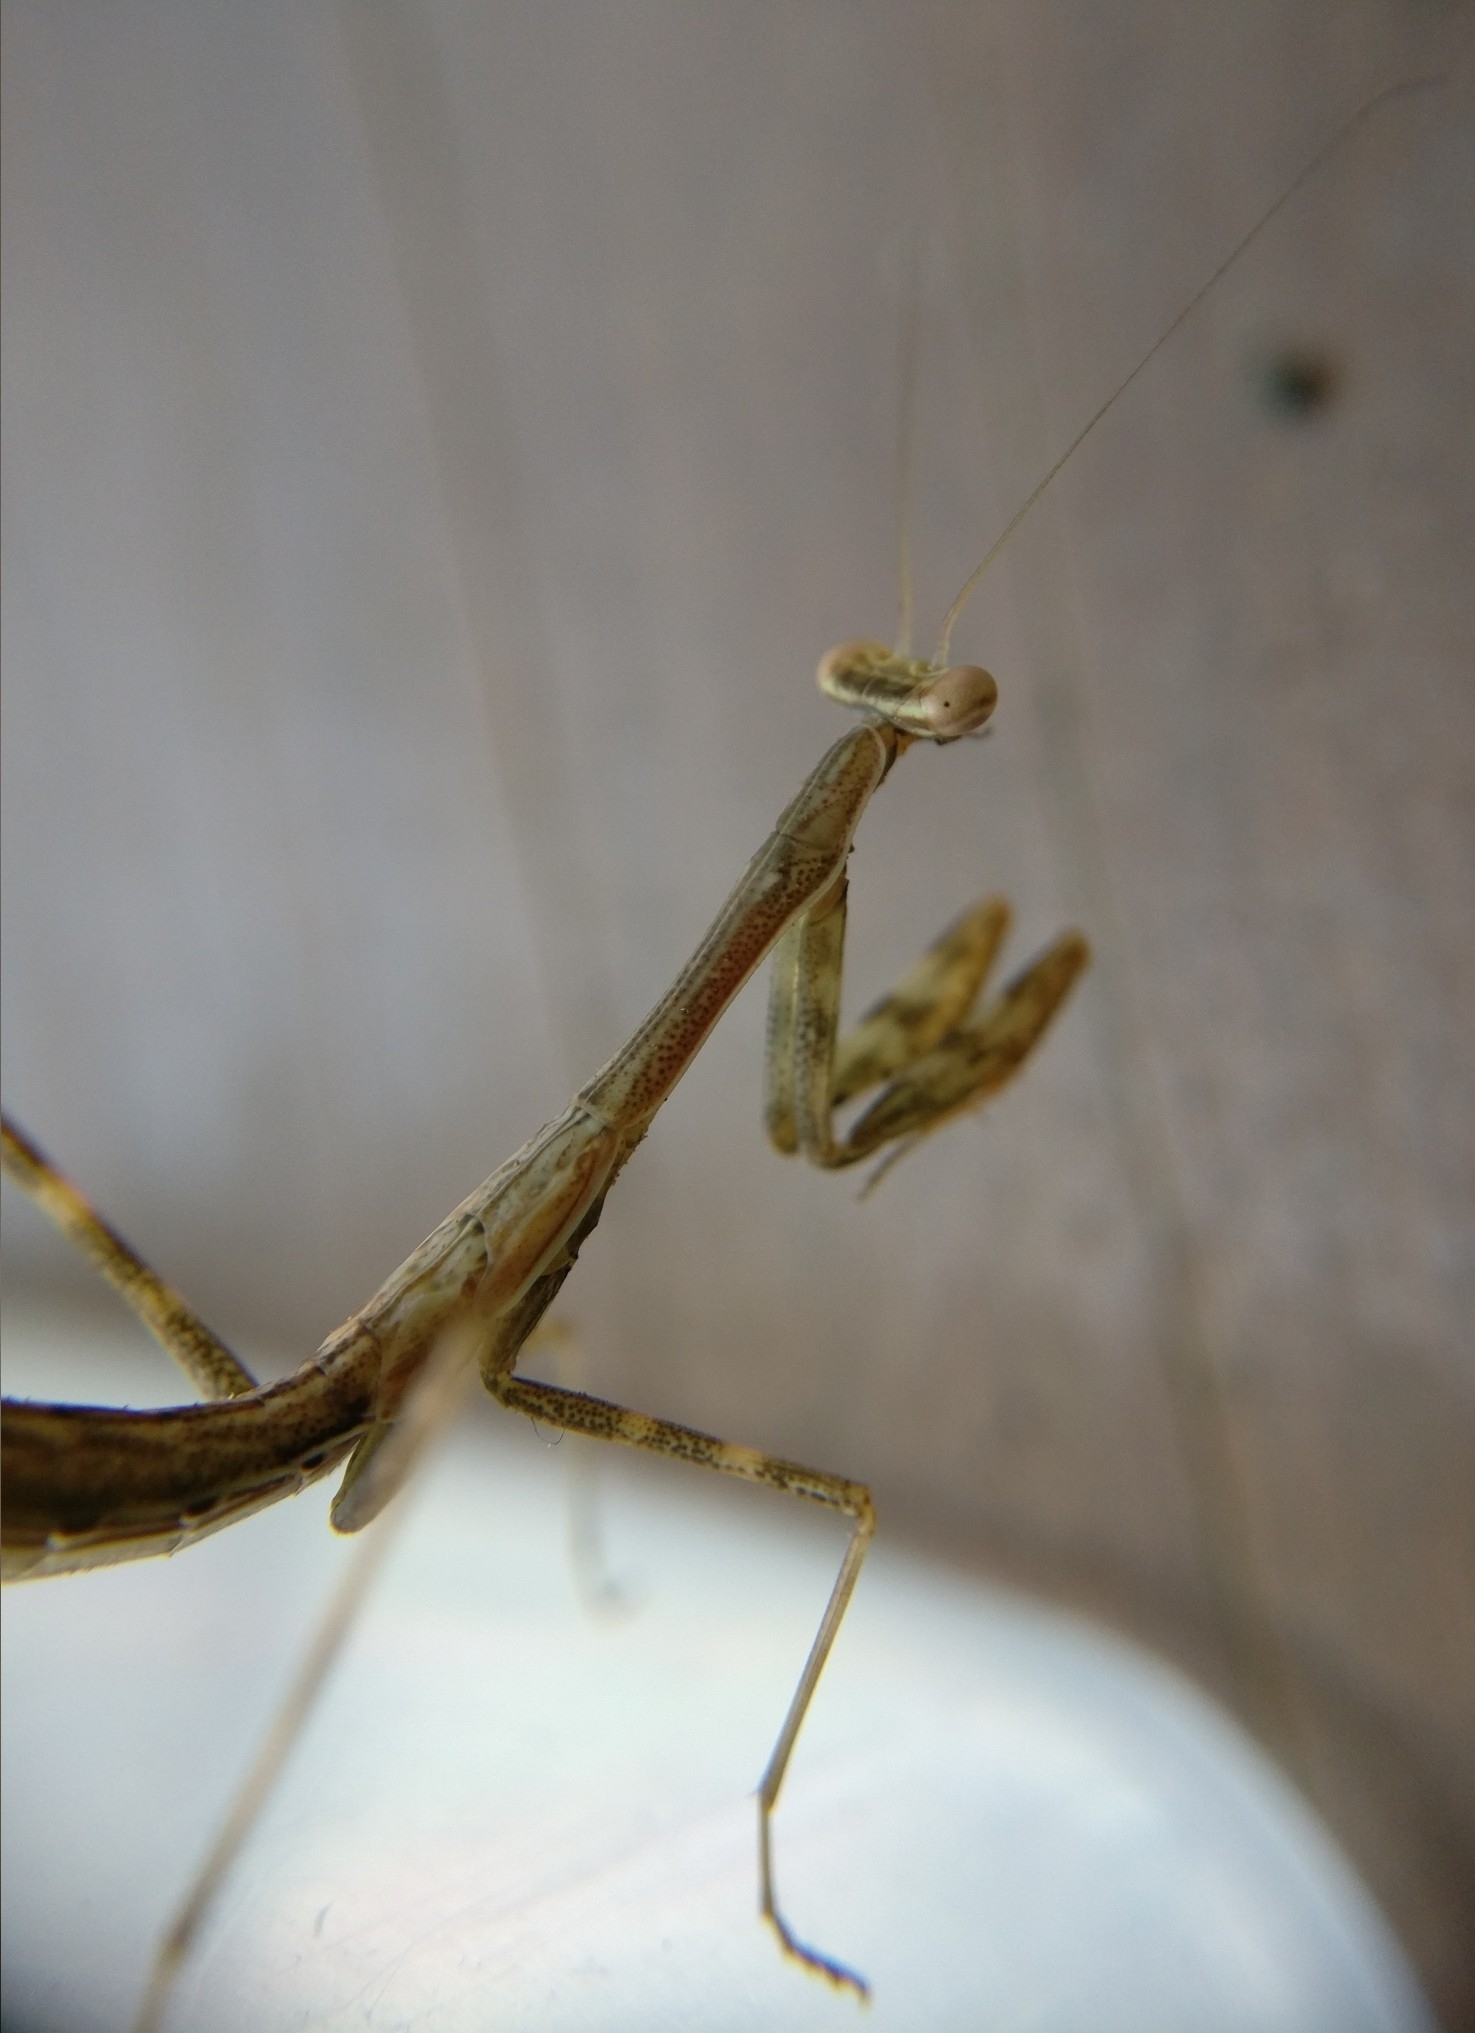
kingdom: Animalia
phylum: Arthropoda
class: Insecta
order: Mantodea
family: Miomantidae
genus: Miomantis
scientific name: Miomantis caffra
